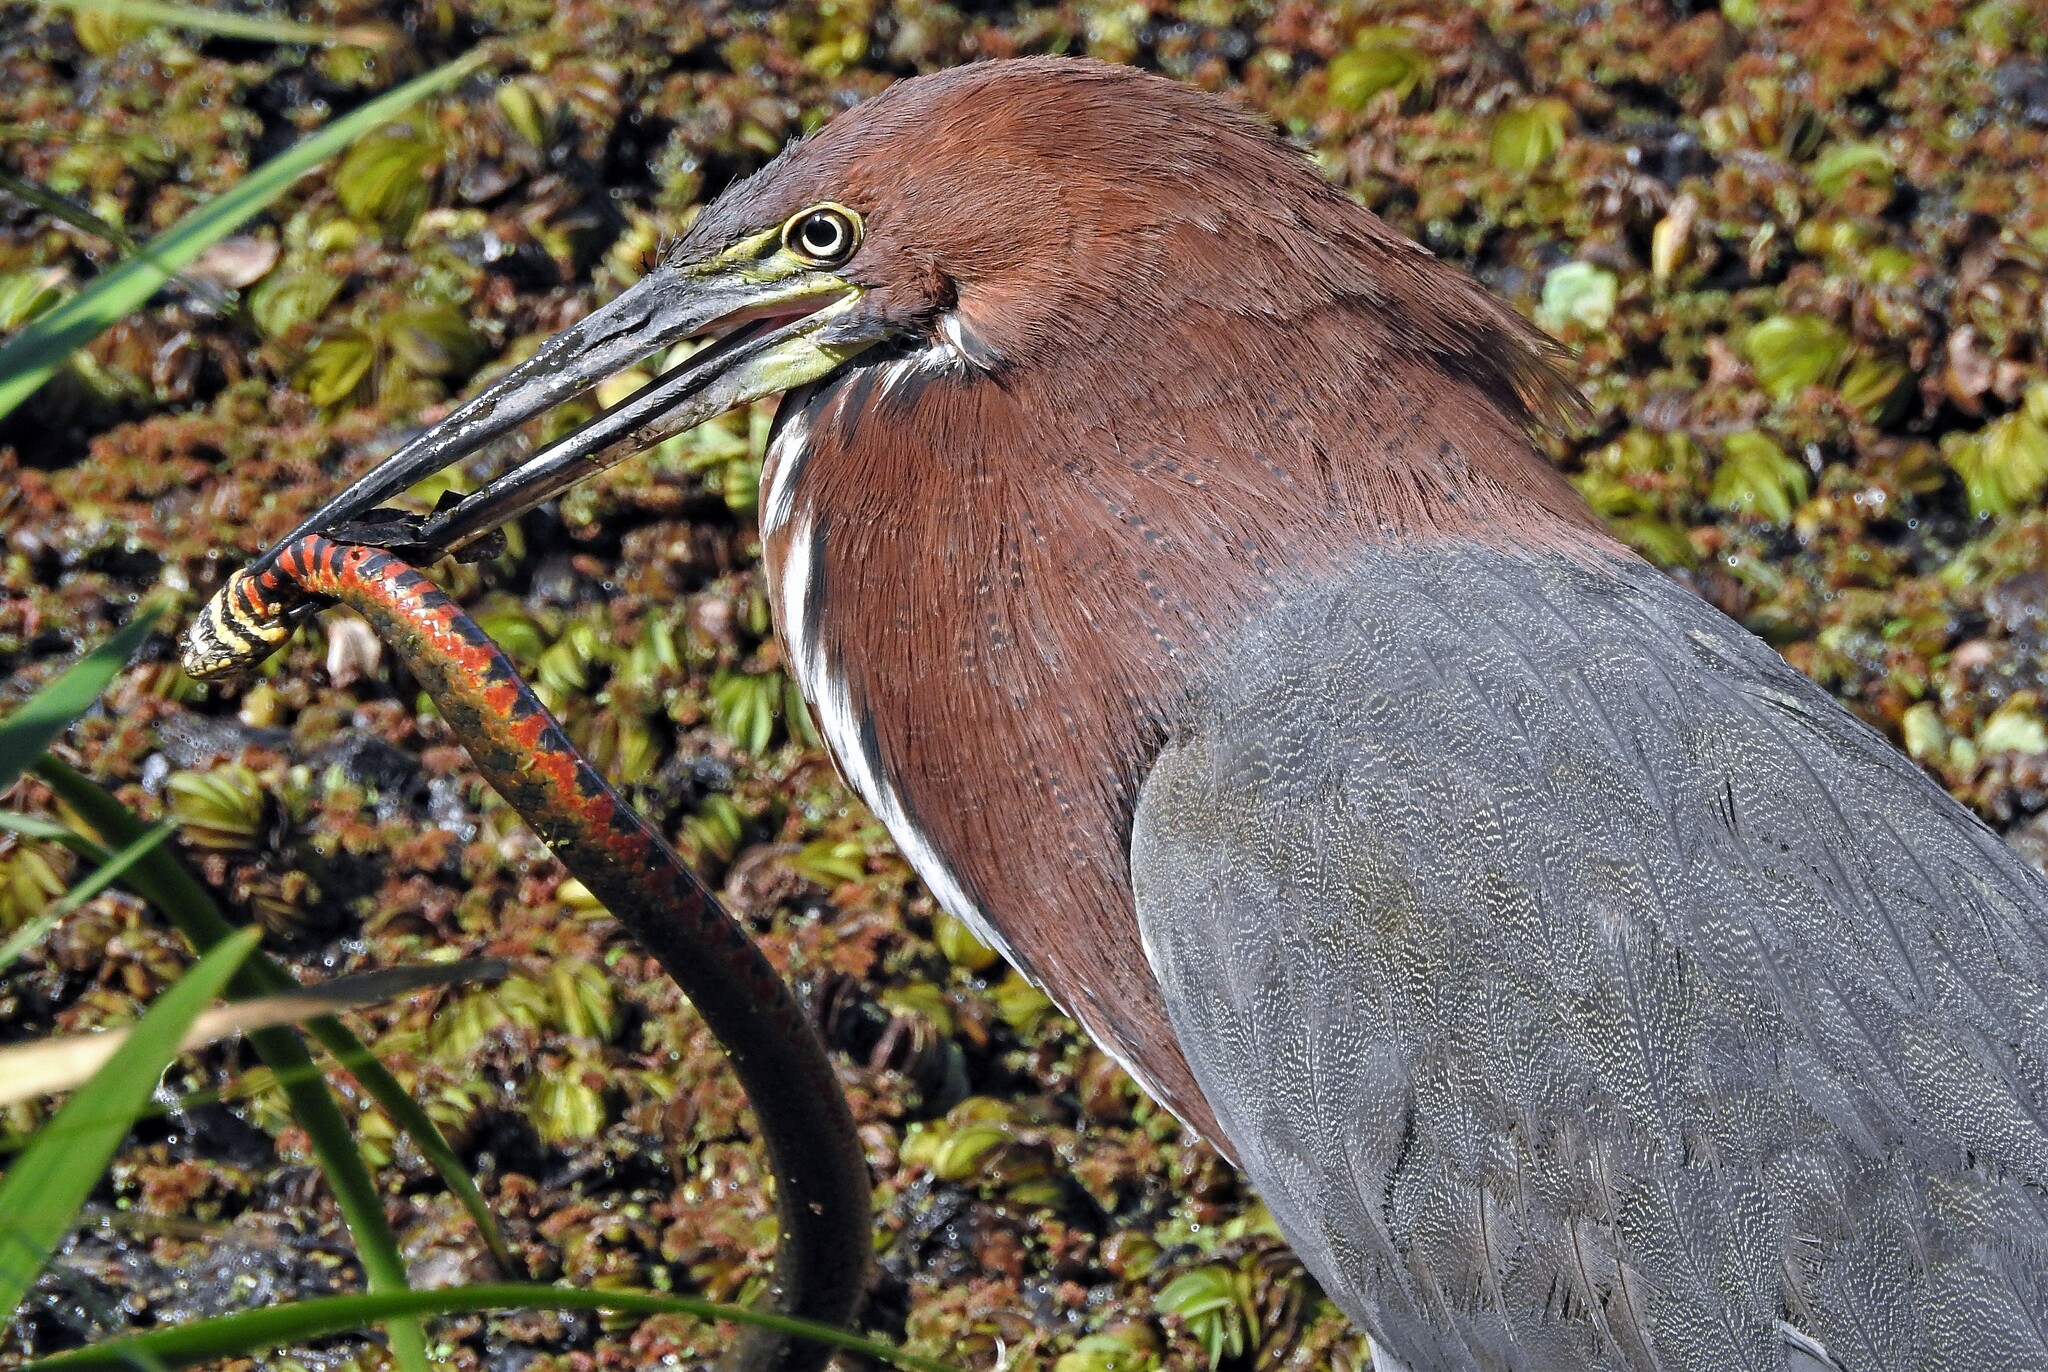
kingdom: Animalia
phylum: Chordata
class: Aves
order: Pelecaniformes
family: Ardeidae
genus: Tigrisoma
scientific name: Tigrisoma lineatum
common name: Rufescent tiger-heron
